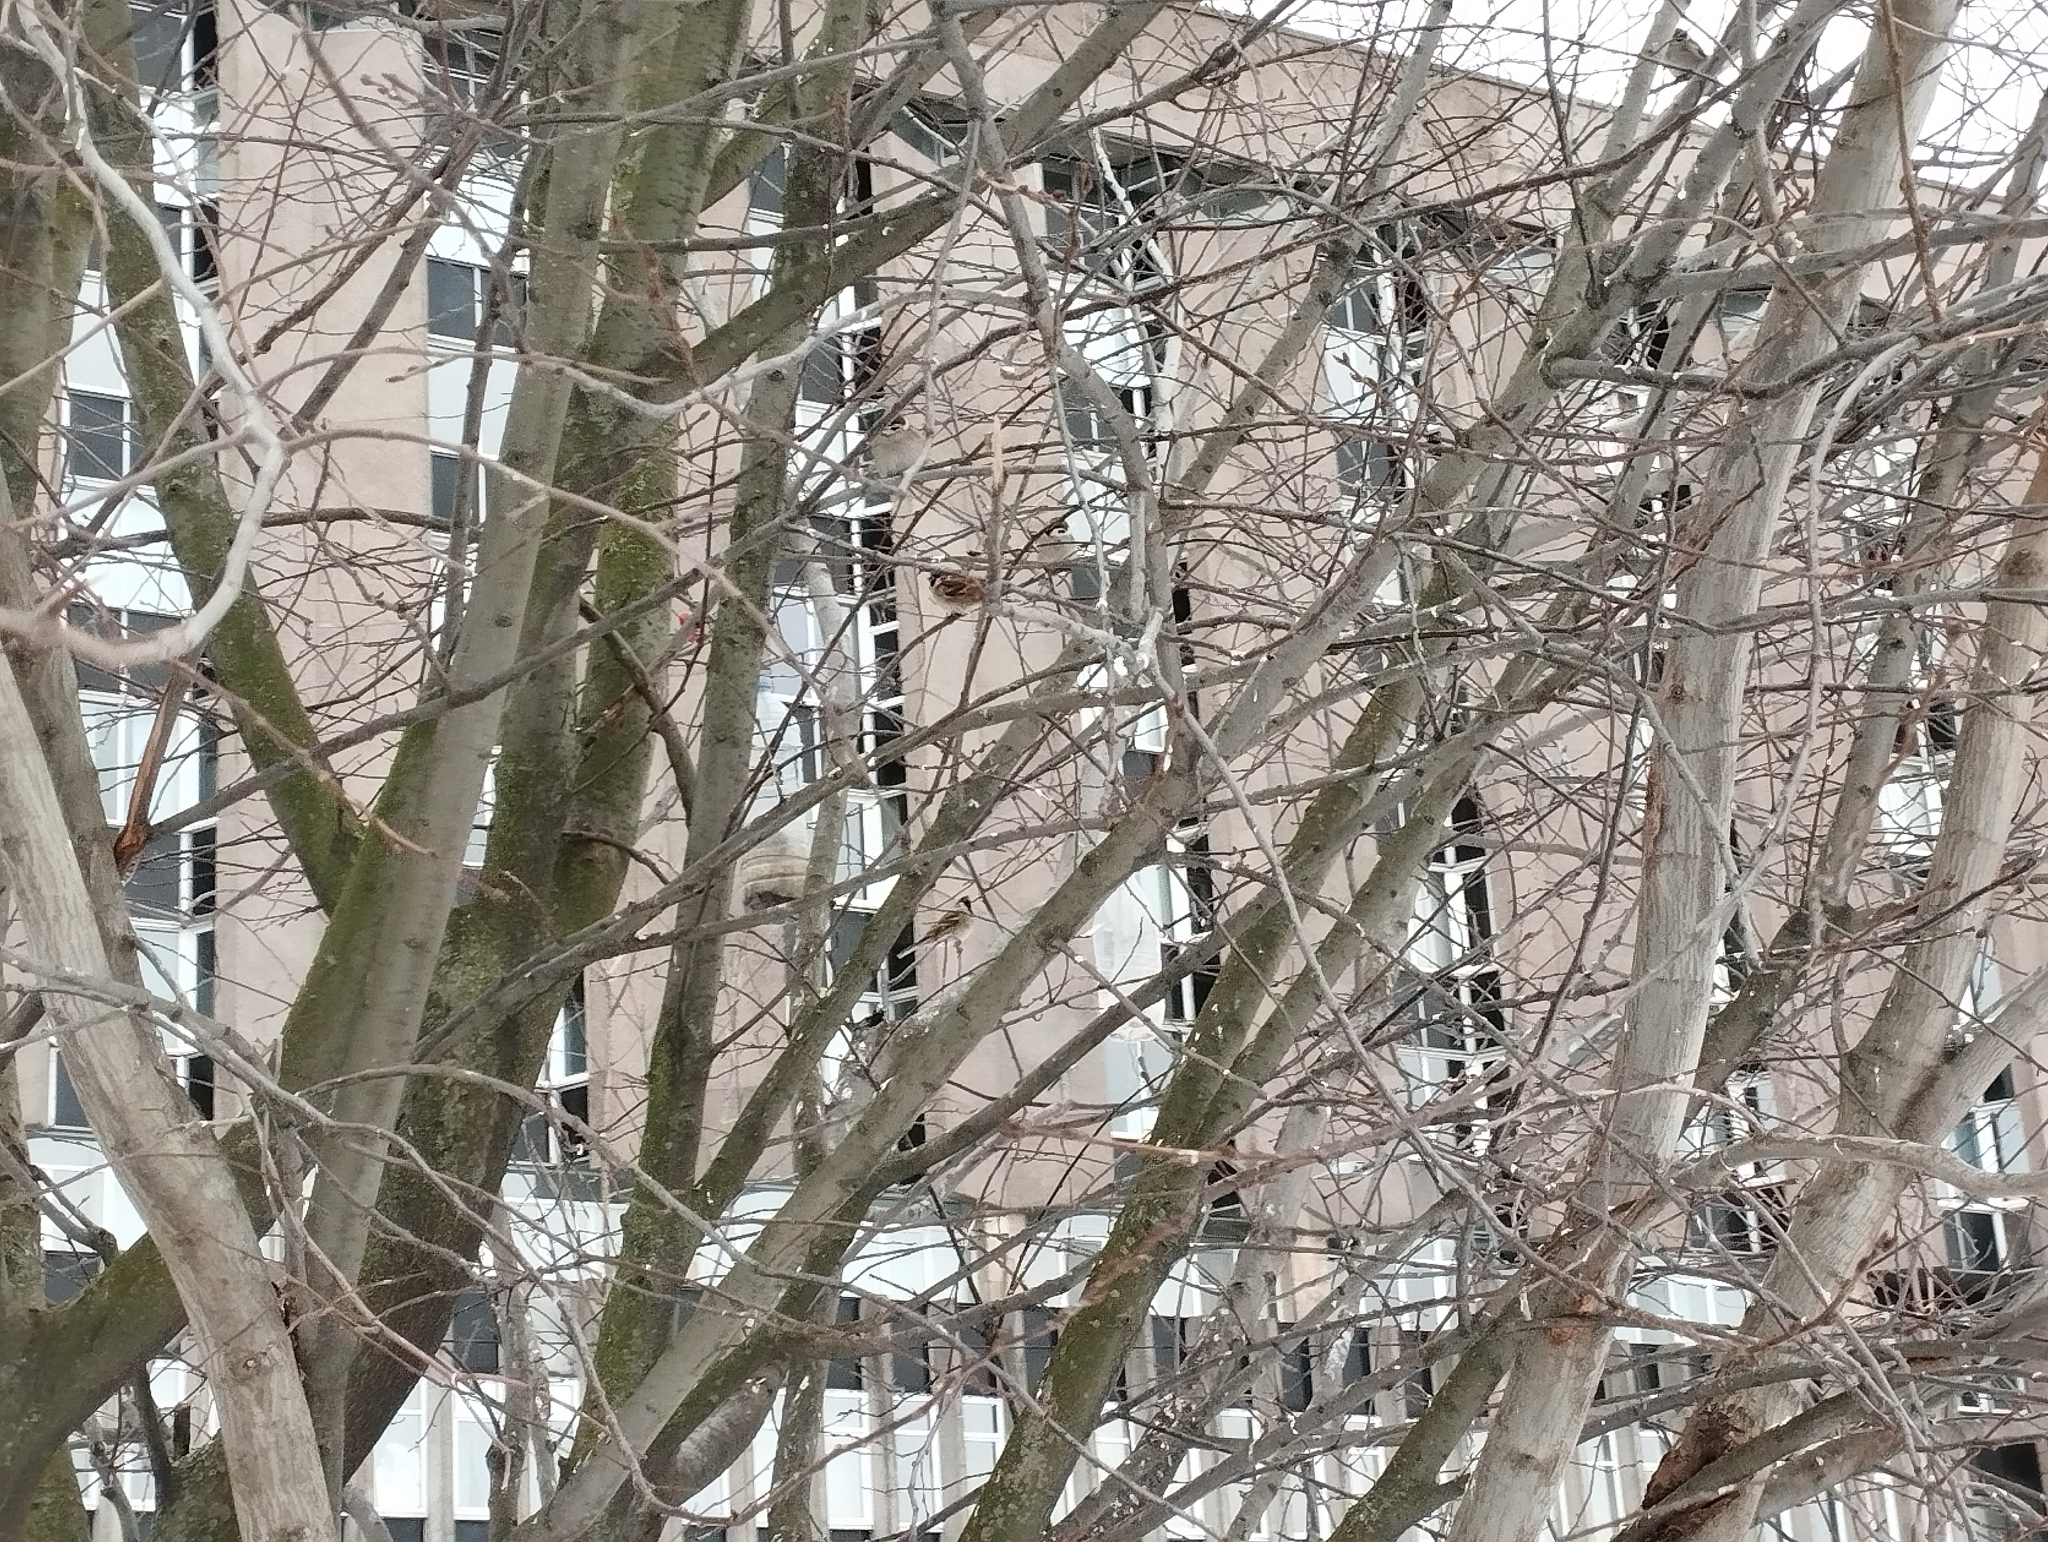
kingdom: Animalia
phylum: Chordata
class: Aves
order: Passeriformes
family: Passeridae
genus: Passer
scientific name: Passer montanus
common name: Eurasian tree sparrow
